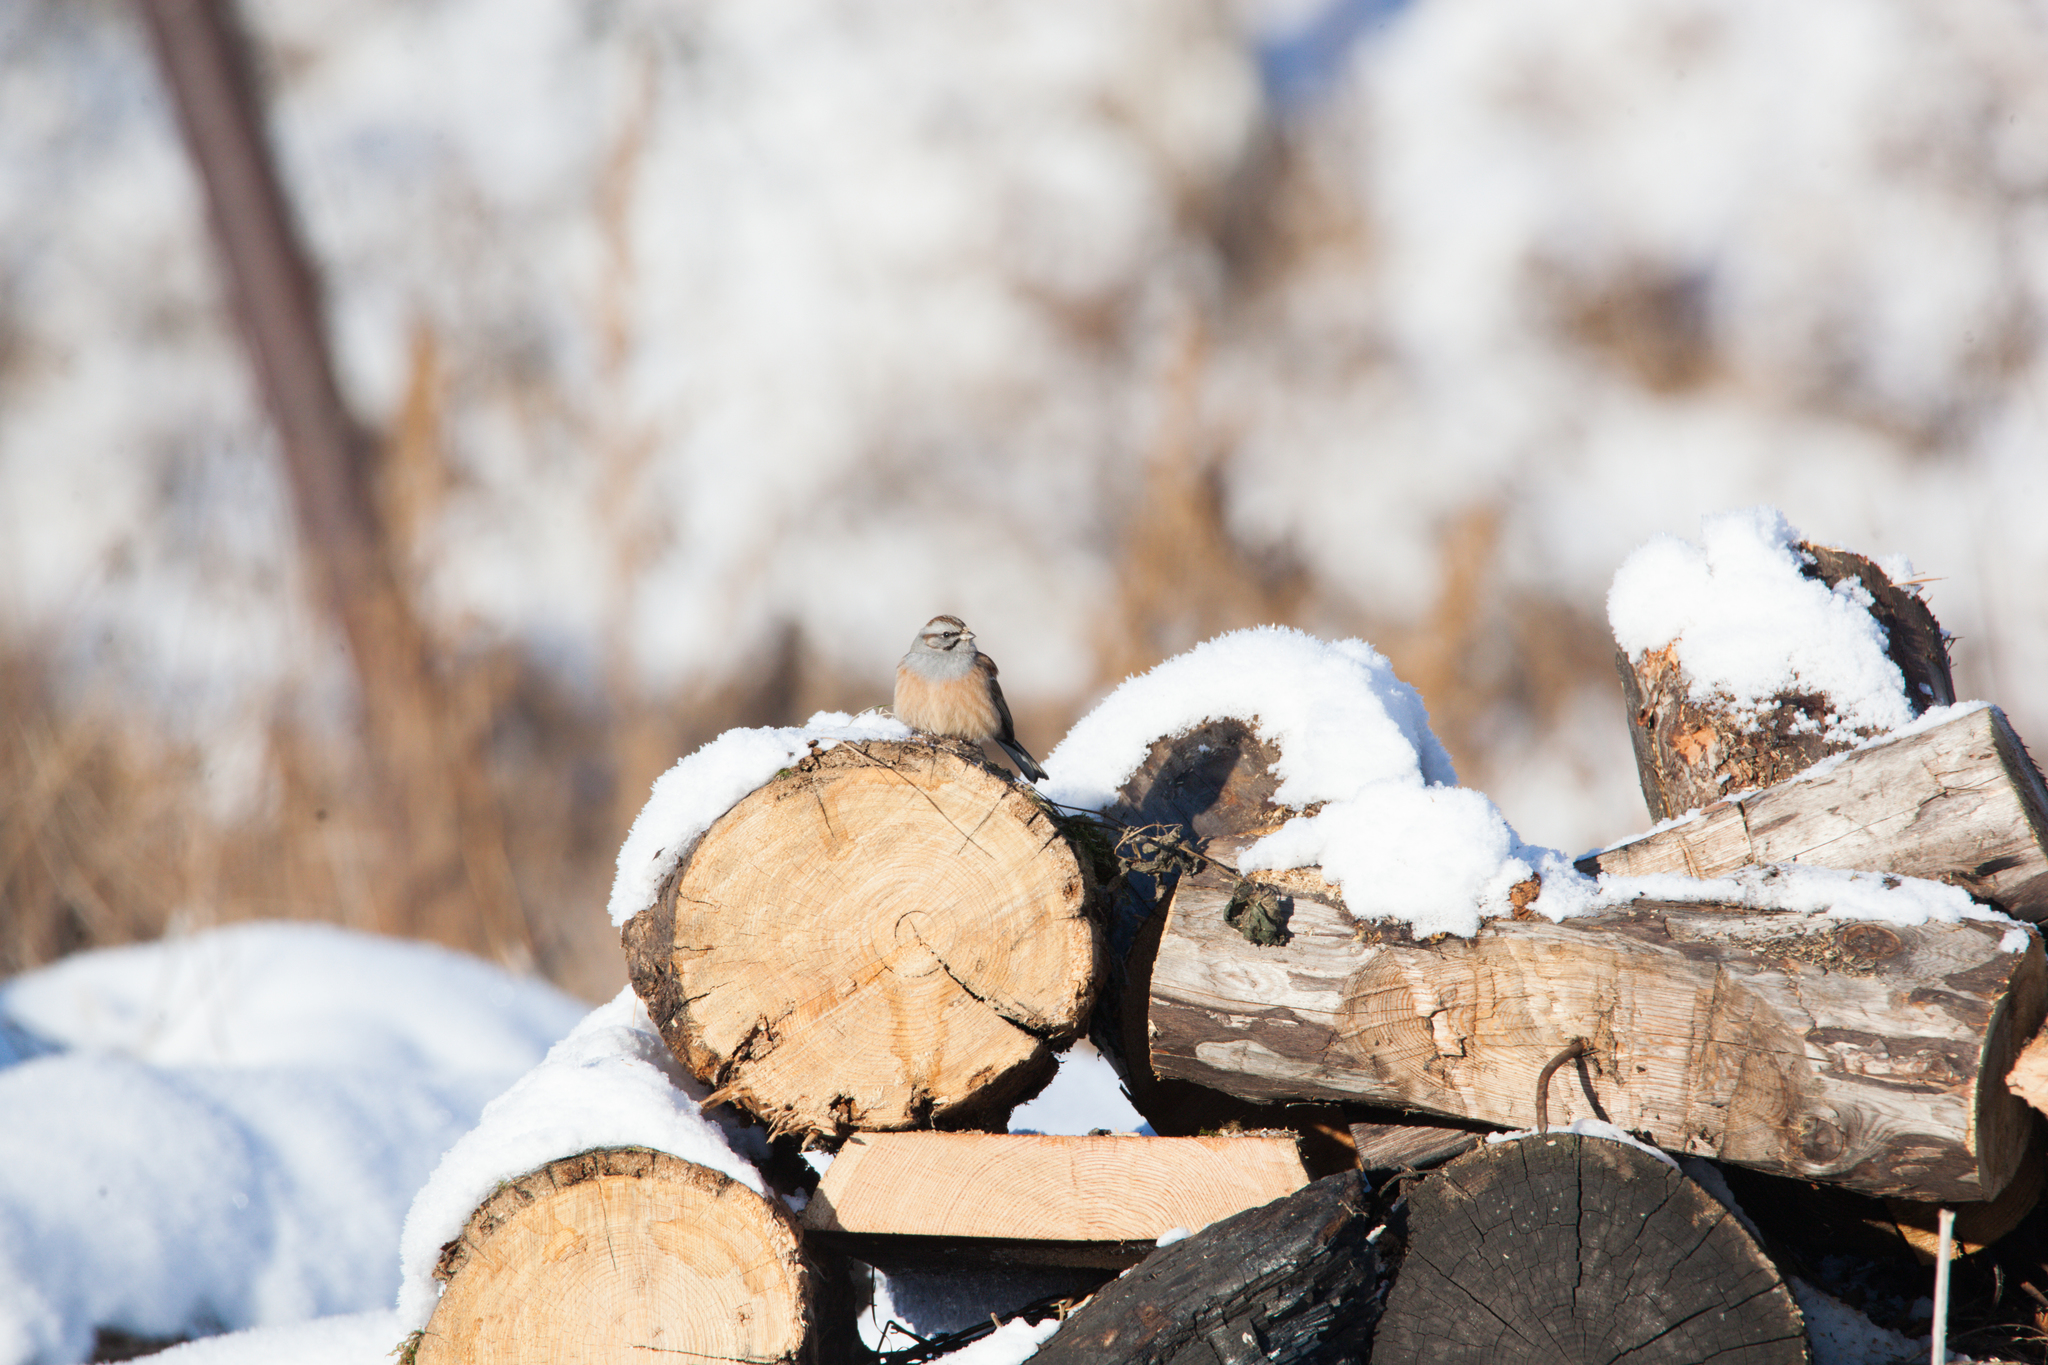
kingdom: Animalia
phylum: Chordata
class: Aves
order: Passeriformes
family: Emberizidae
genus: Emberiza
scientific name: Emberiza godlewskii
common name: Godlewski's bunting
